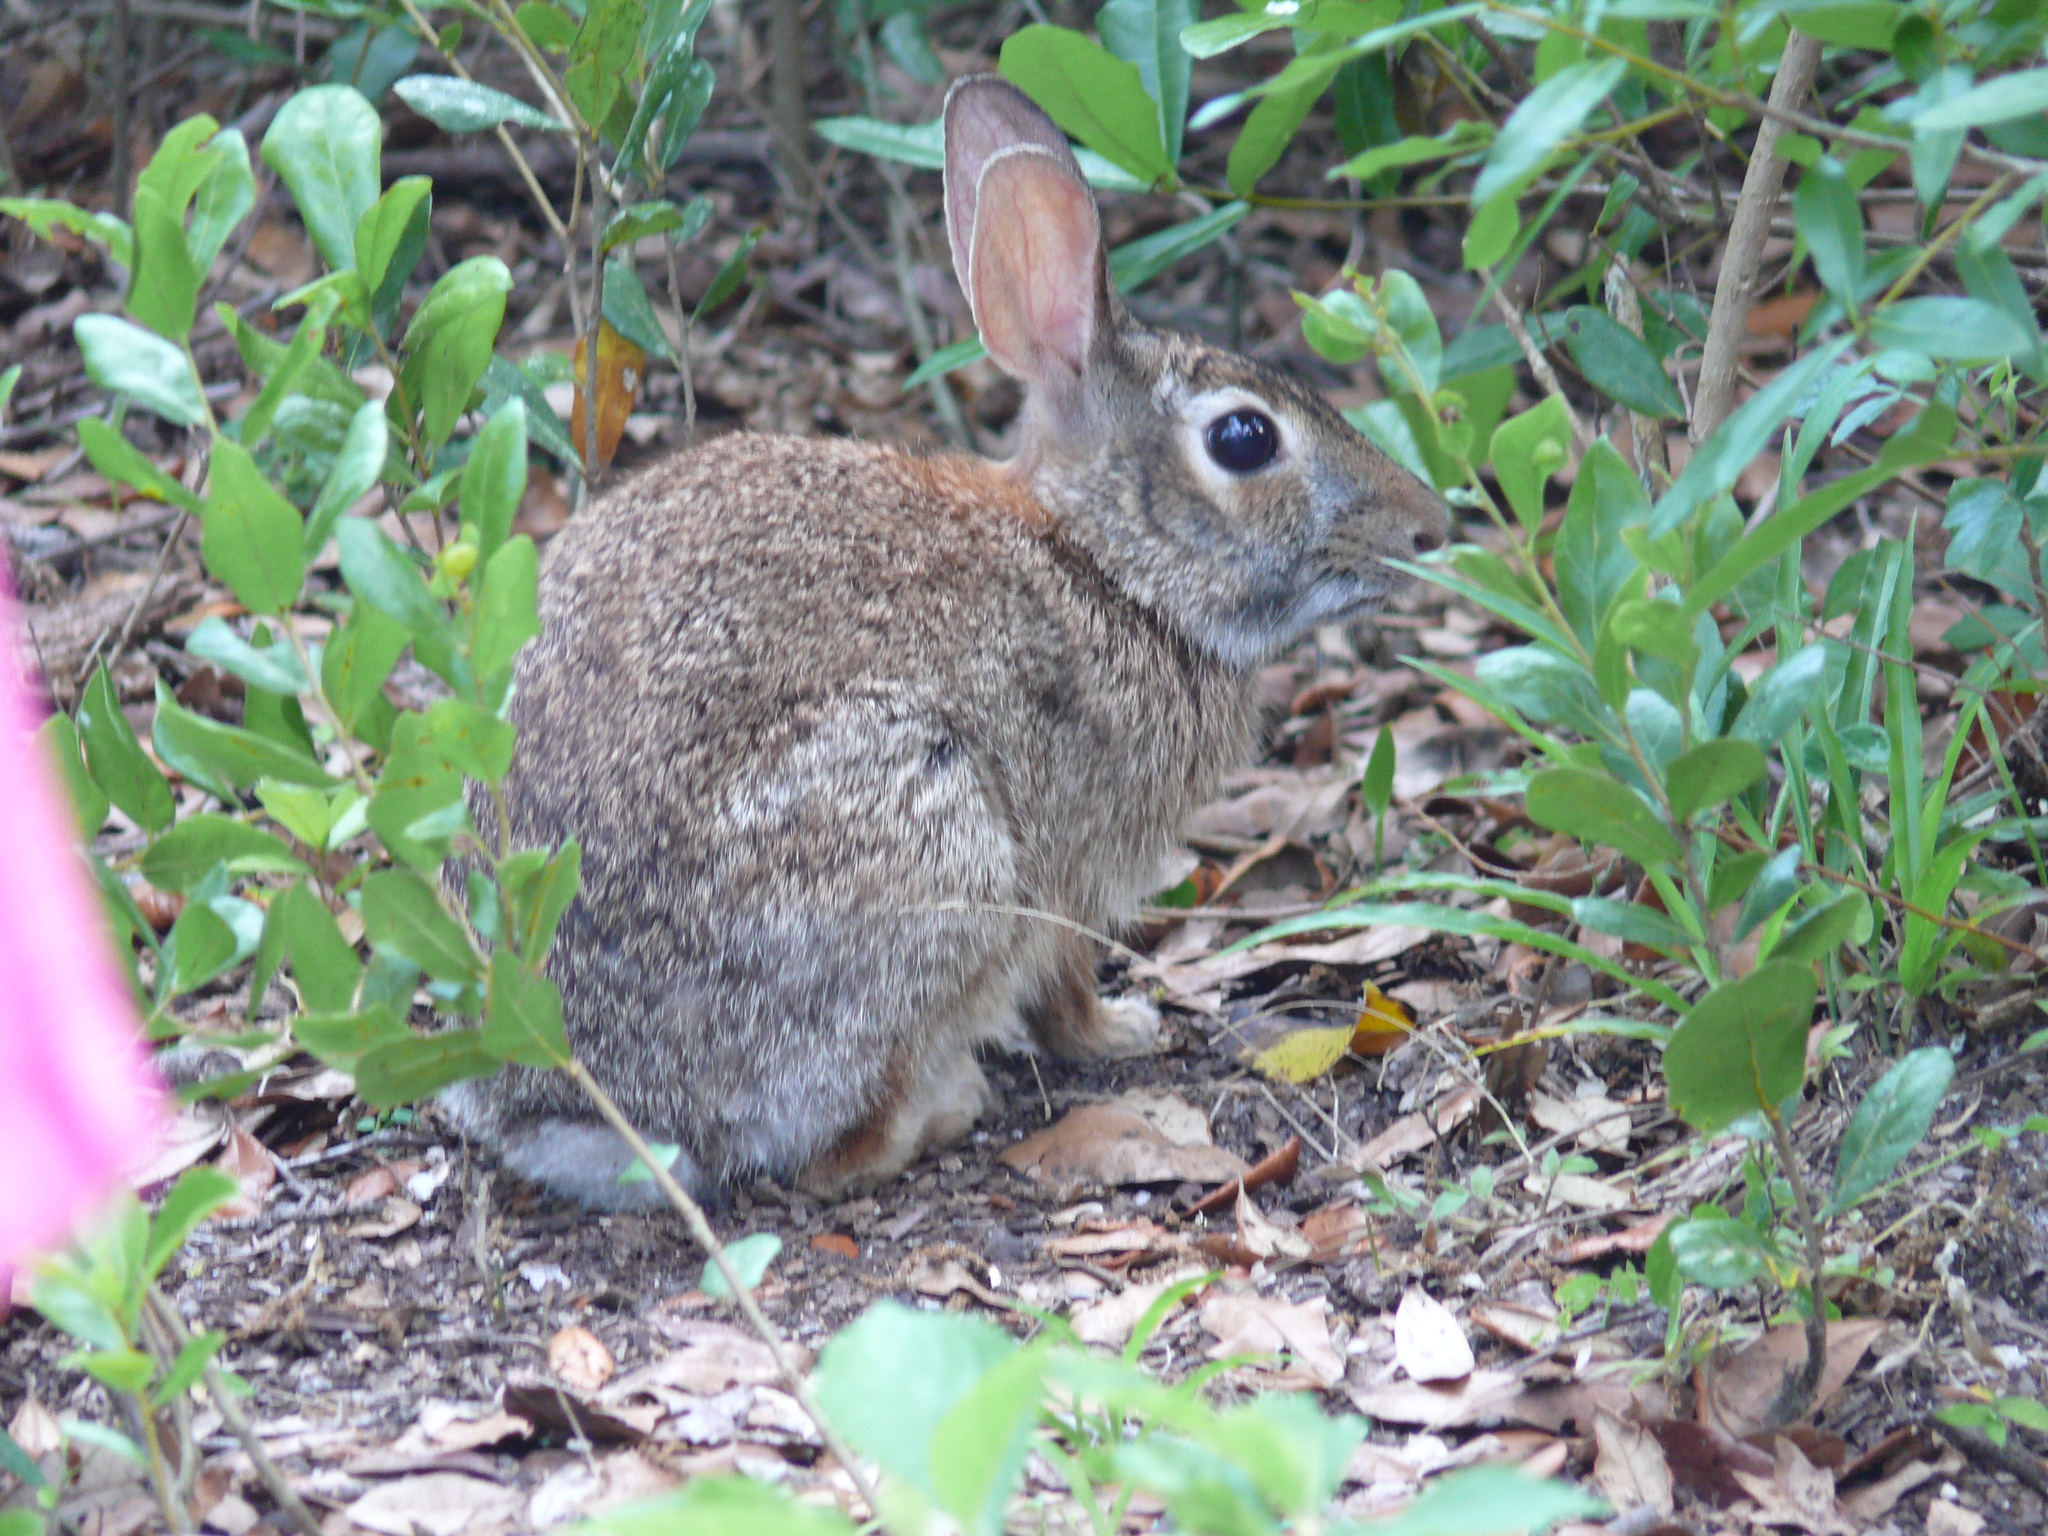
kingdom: Animalia
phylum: Chordata
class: Mammalia
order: Lagomorpha
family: Leporidae
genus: Sylvilagus
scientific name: Sylvilagus floridanus
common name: Eastern cottontail
